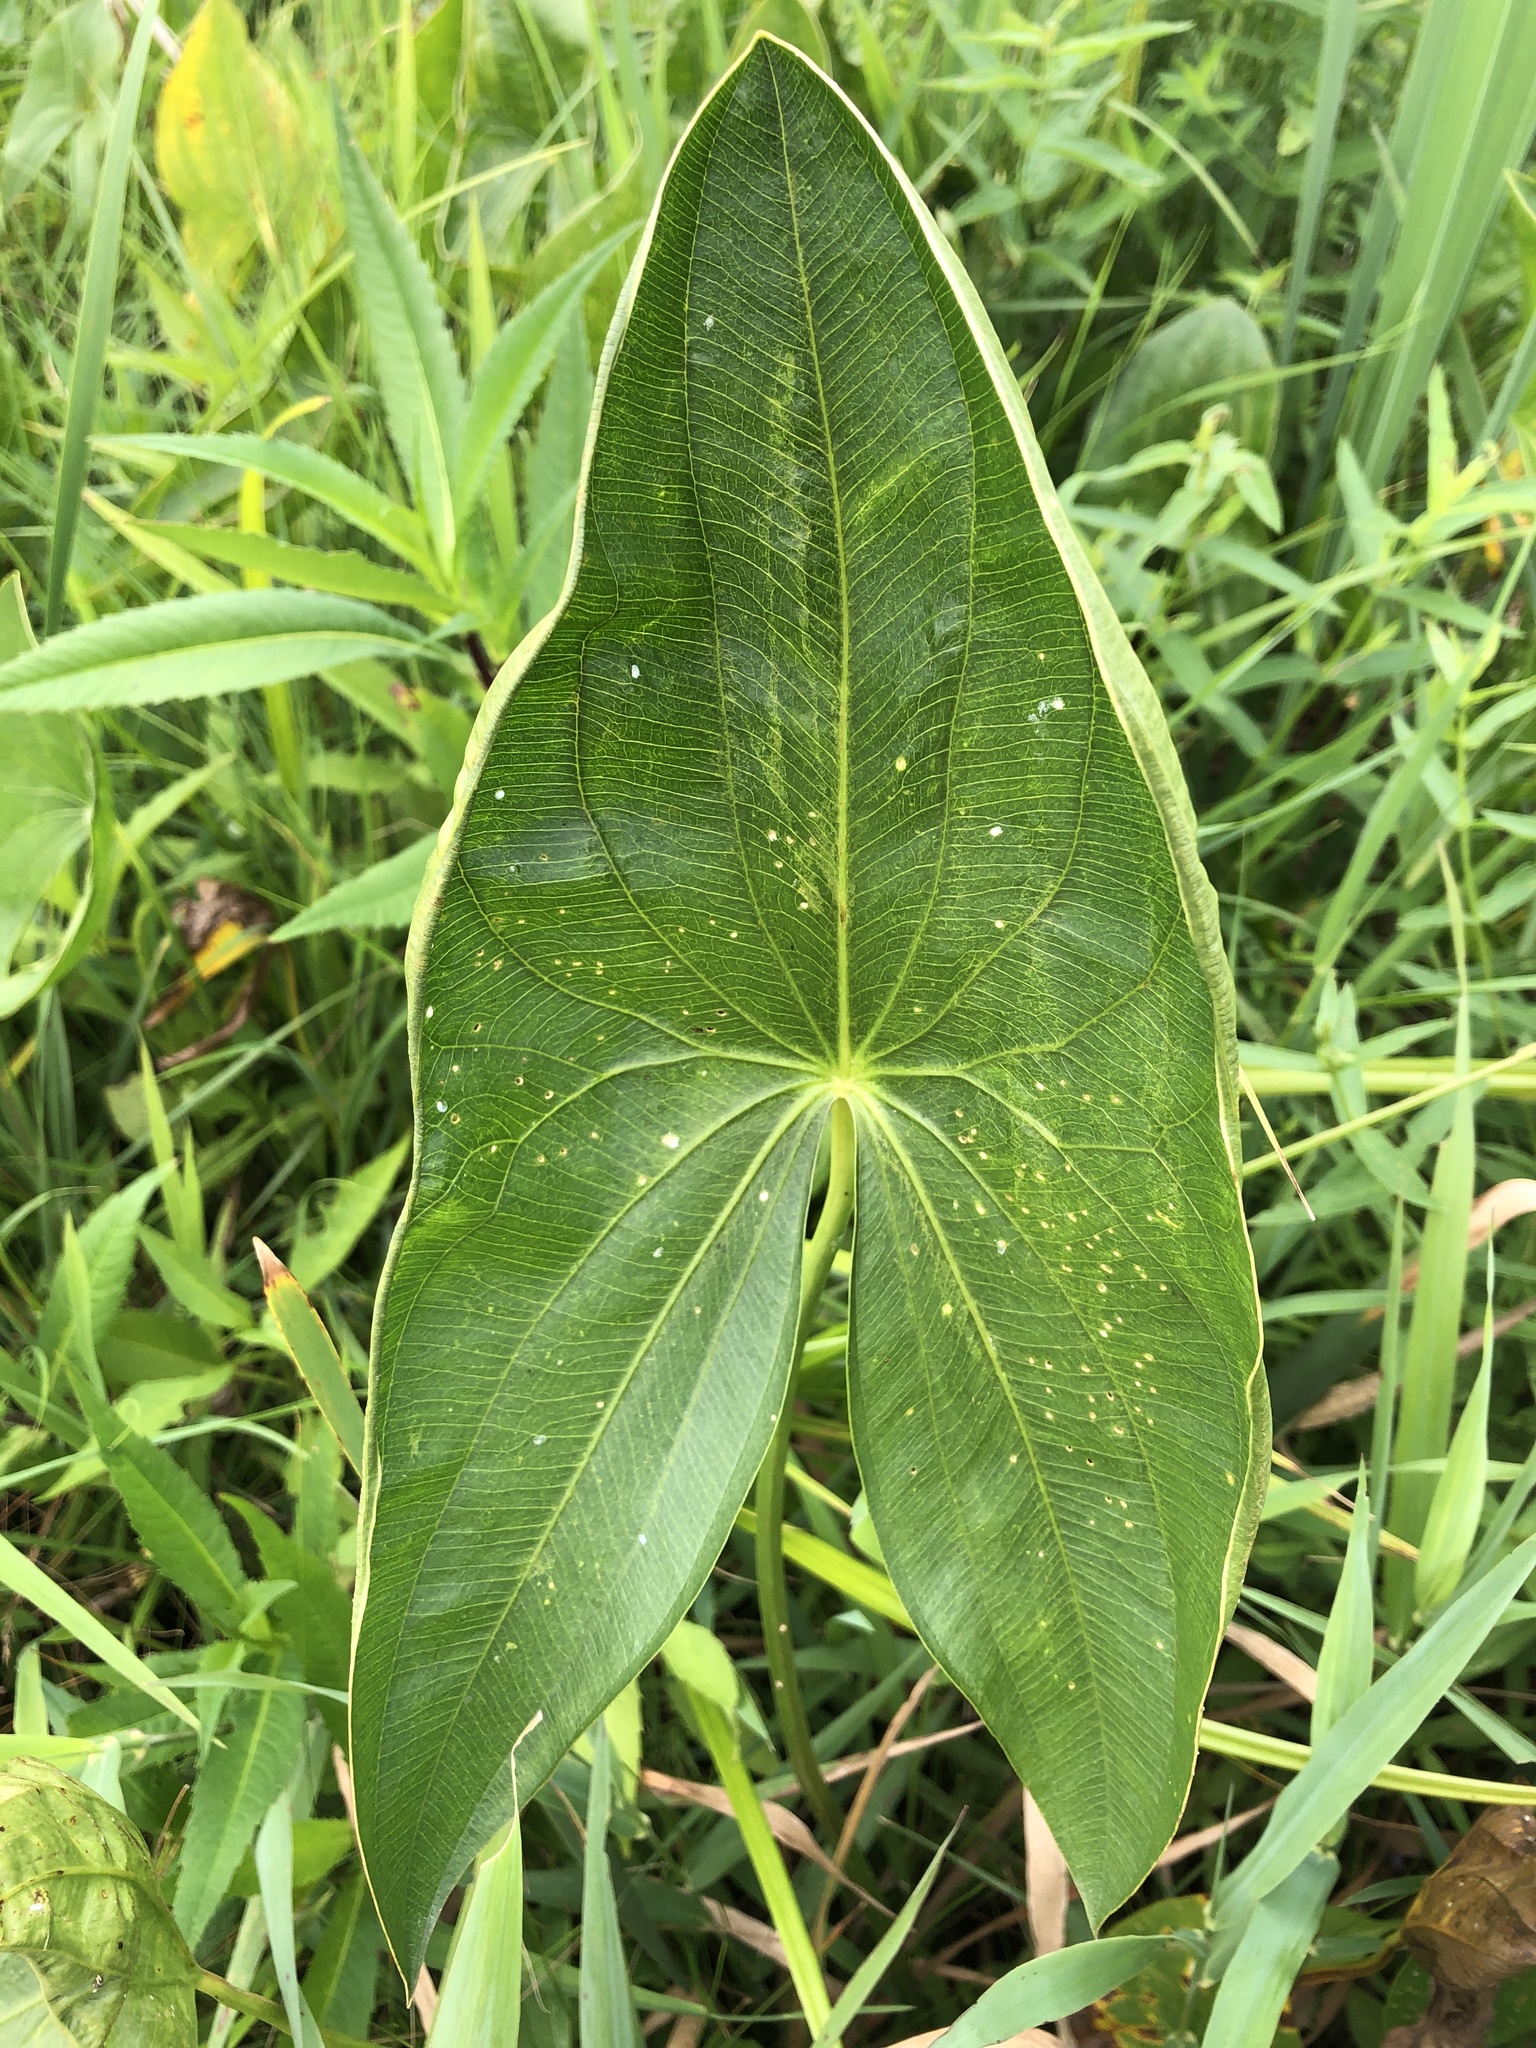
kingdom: Plantae
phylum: Tracheophyta
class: Liliopsida
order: Alismatales
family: Alismataceae
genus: Sagittaria
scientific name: Sagittaria
